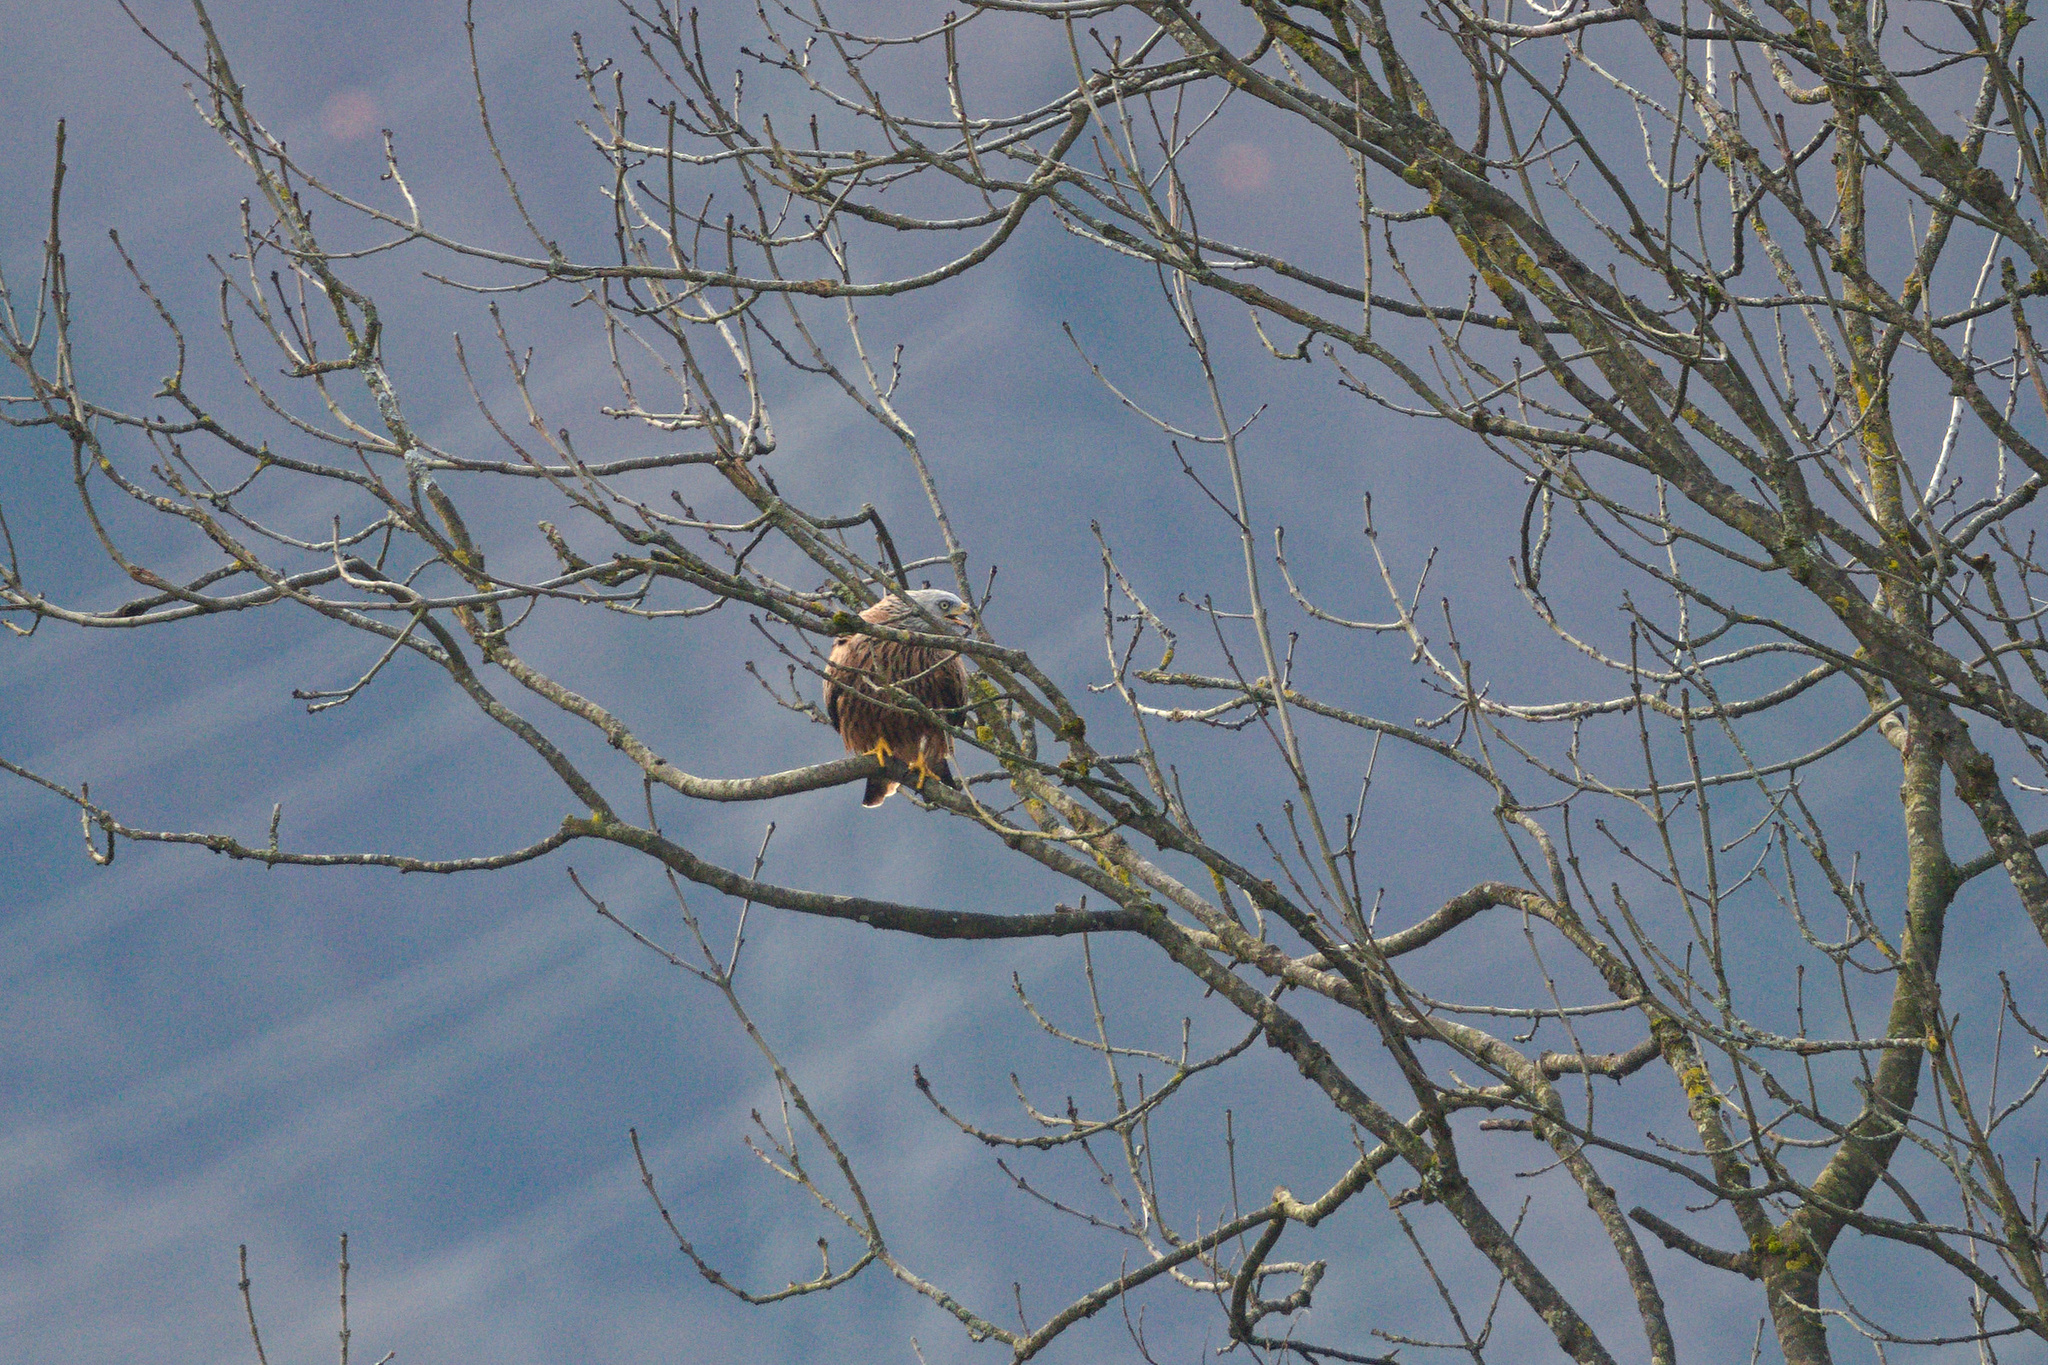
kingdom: Animalia
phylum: Chordata
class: Aves
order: Accipitriformes
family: Accipitridae
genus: Milvus
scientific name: Milvus milvus
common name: Red kite
